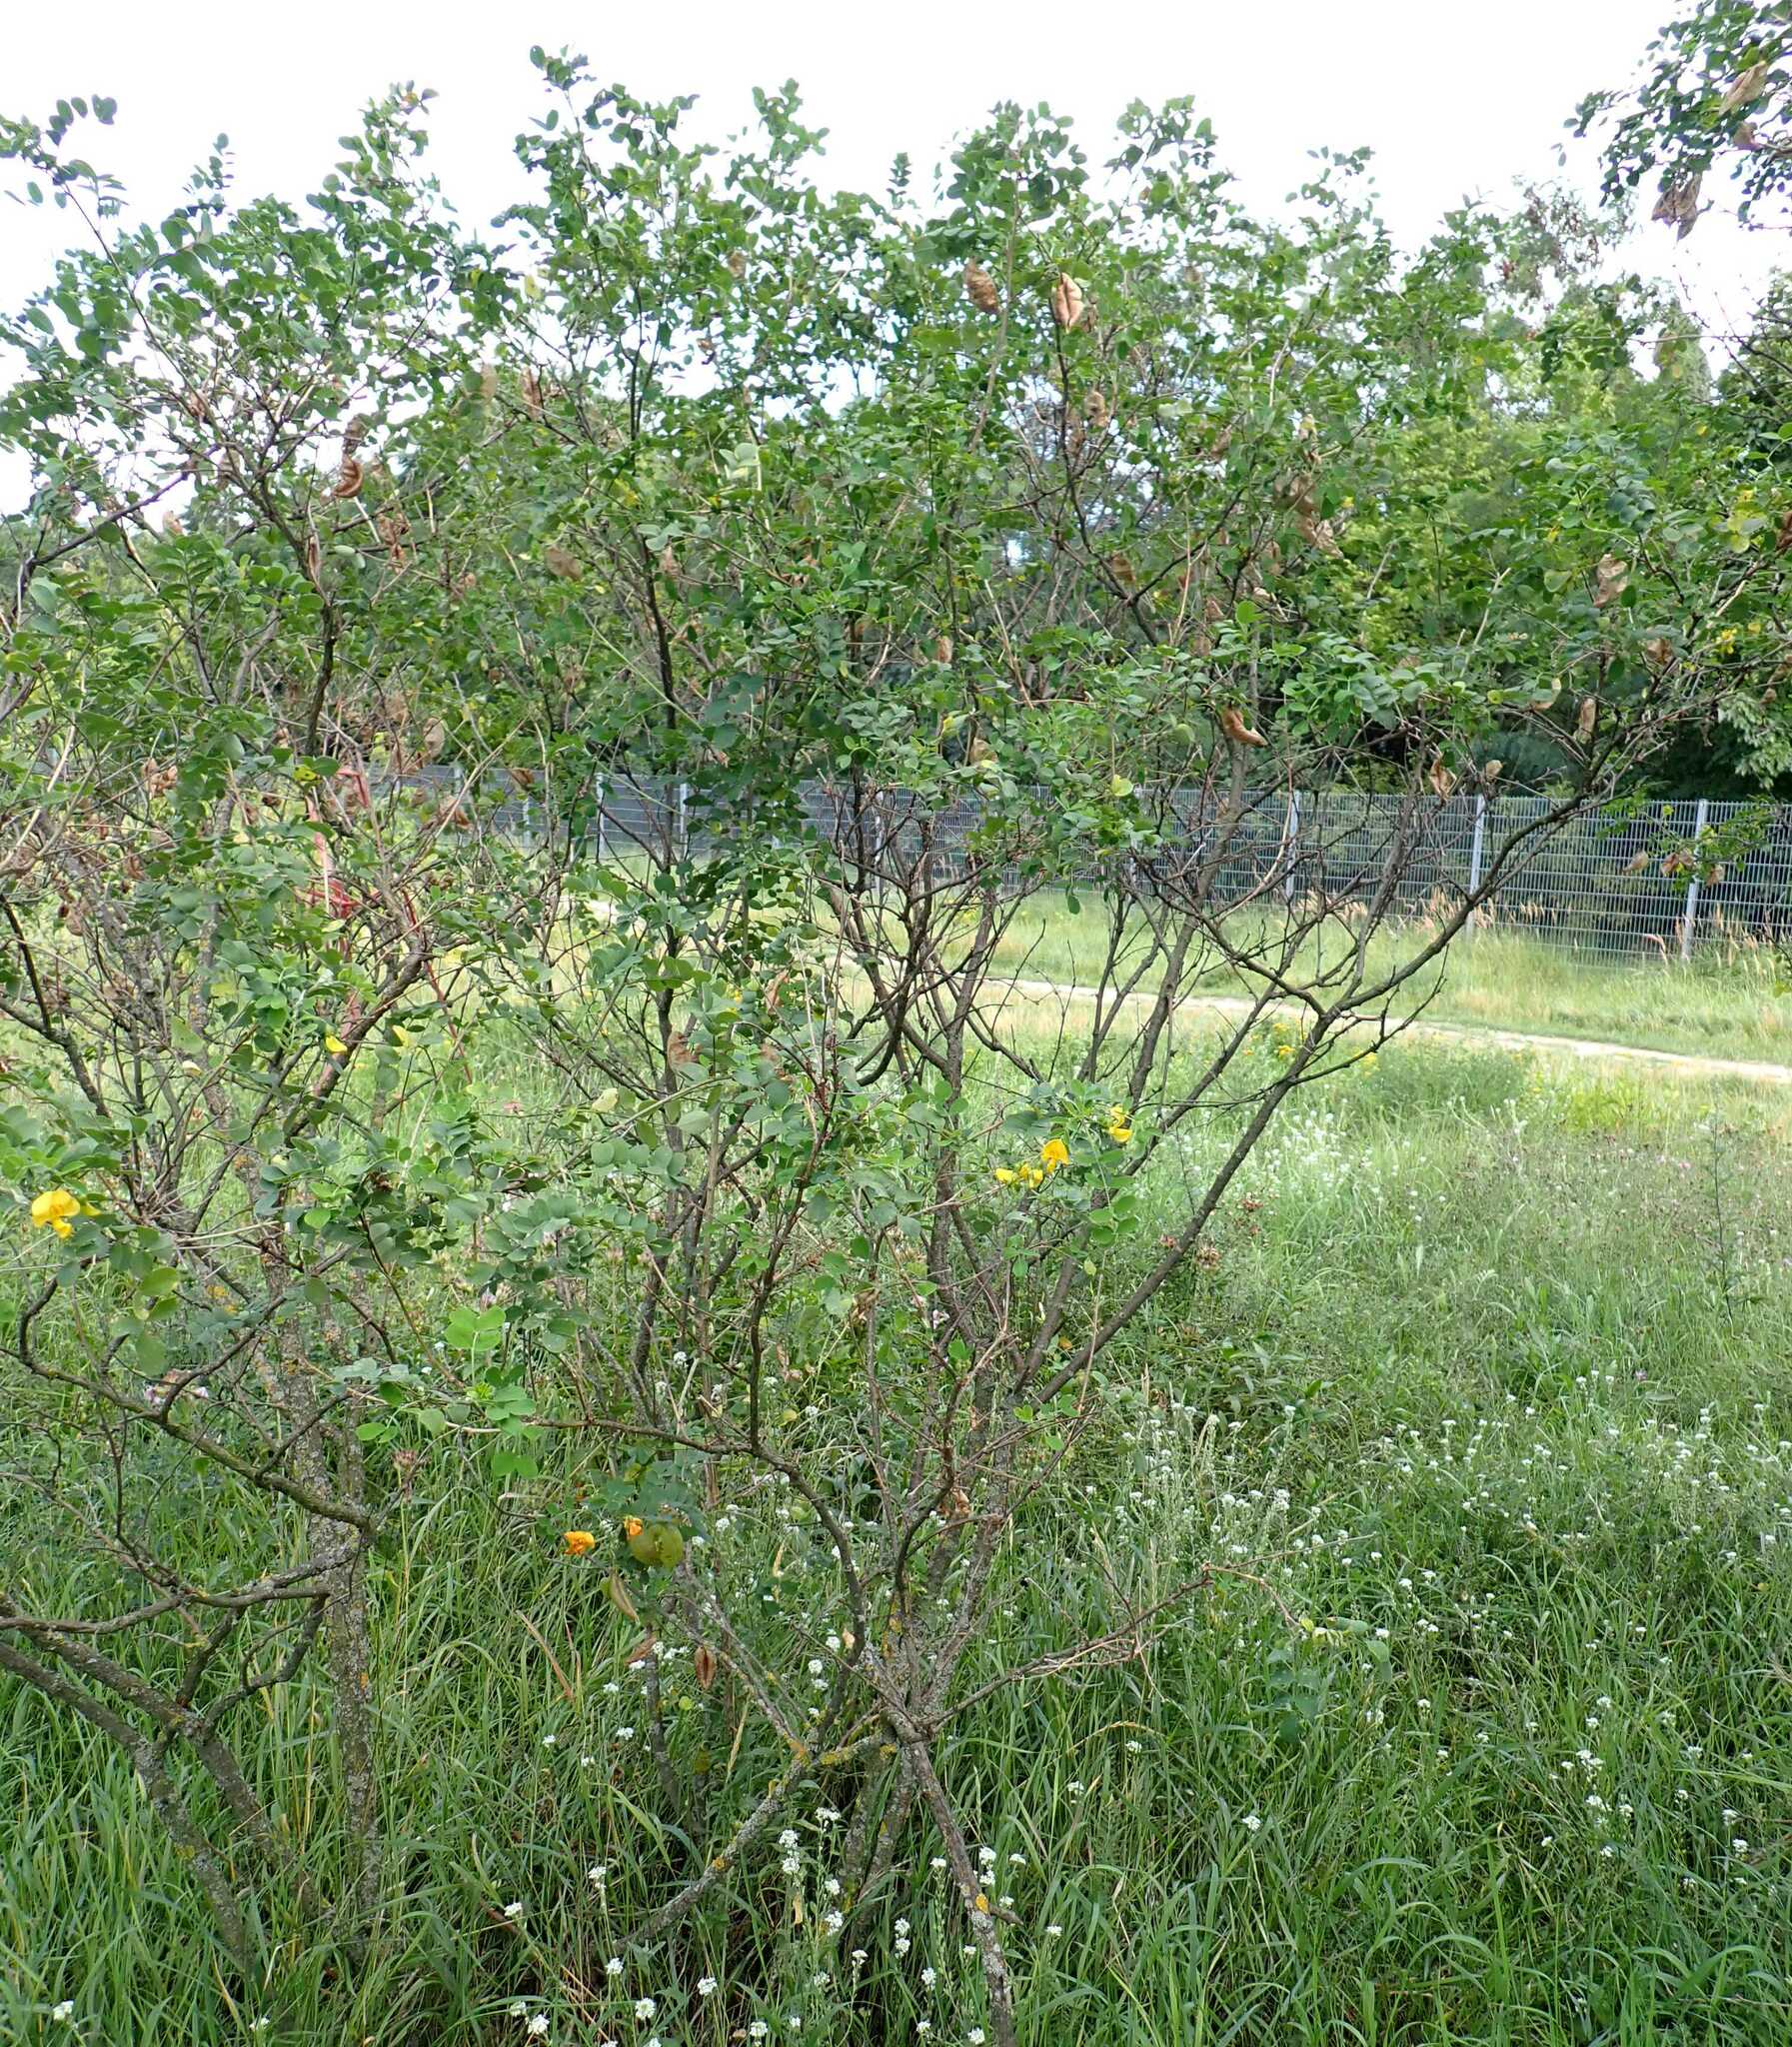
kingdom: Plantae
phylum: Tracheophyta
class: Magnoliopsida
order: Fabales
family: Fabaceae
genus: Colutea
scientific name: Colutea arborescens
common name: Bladder-senna
